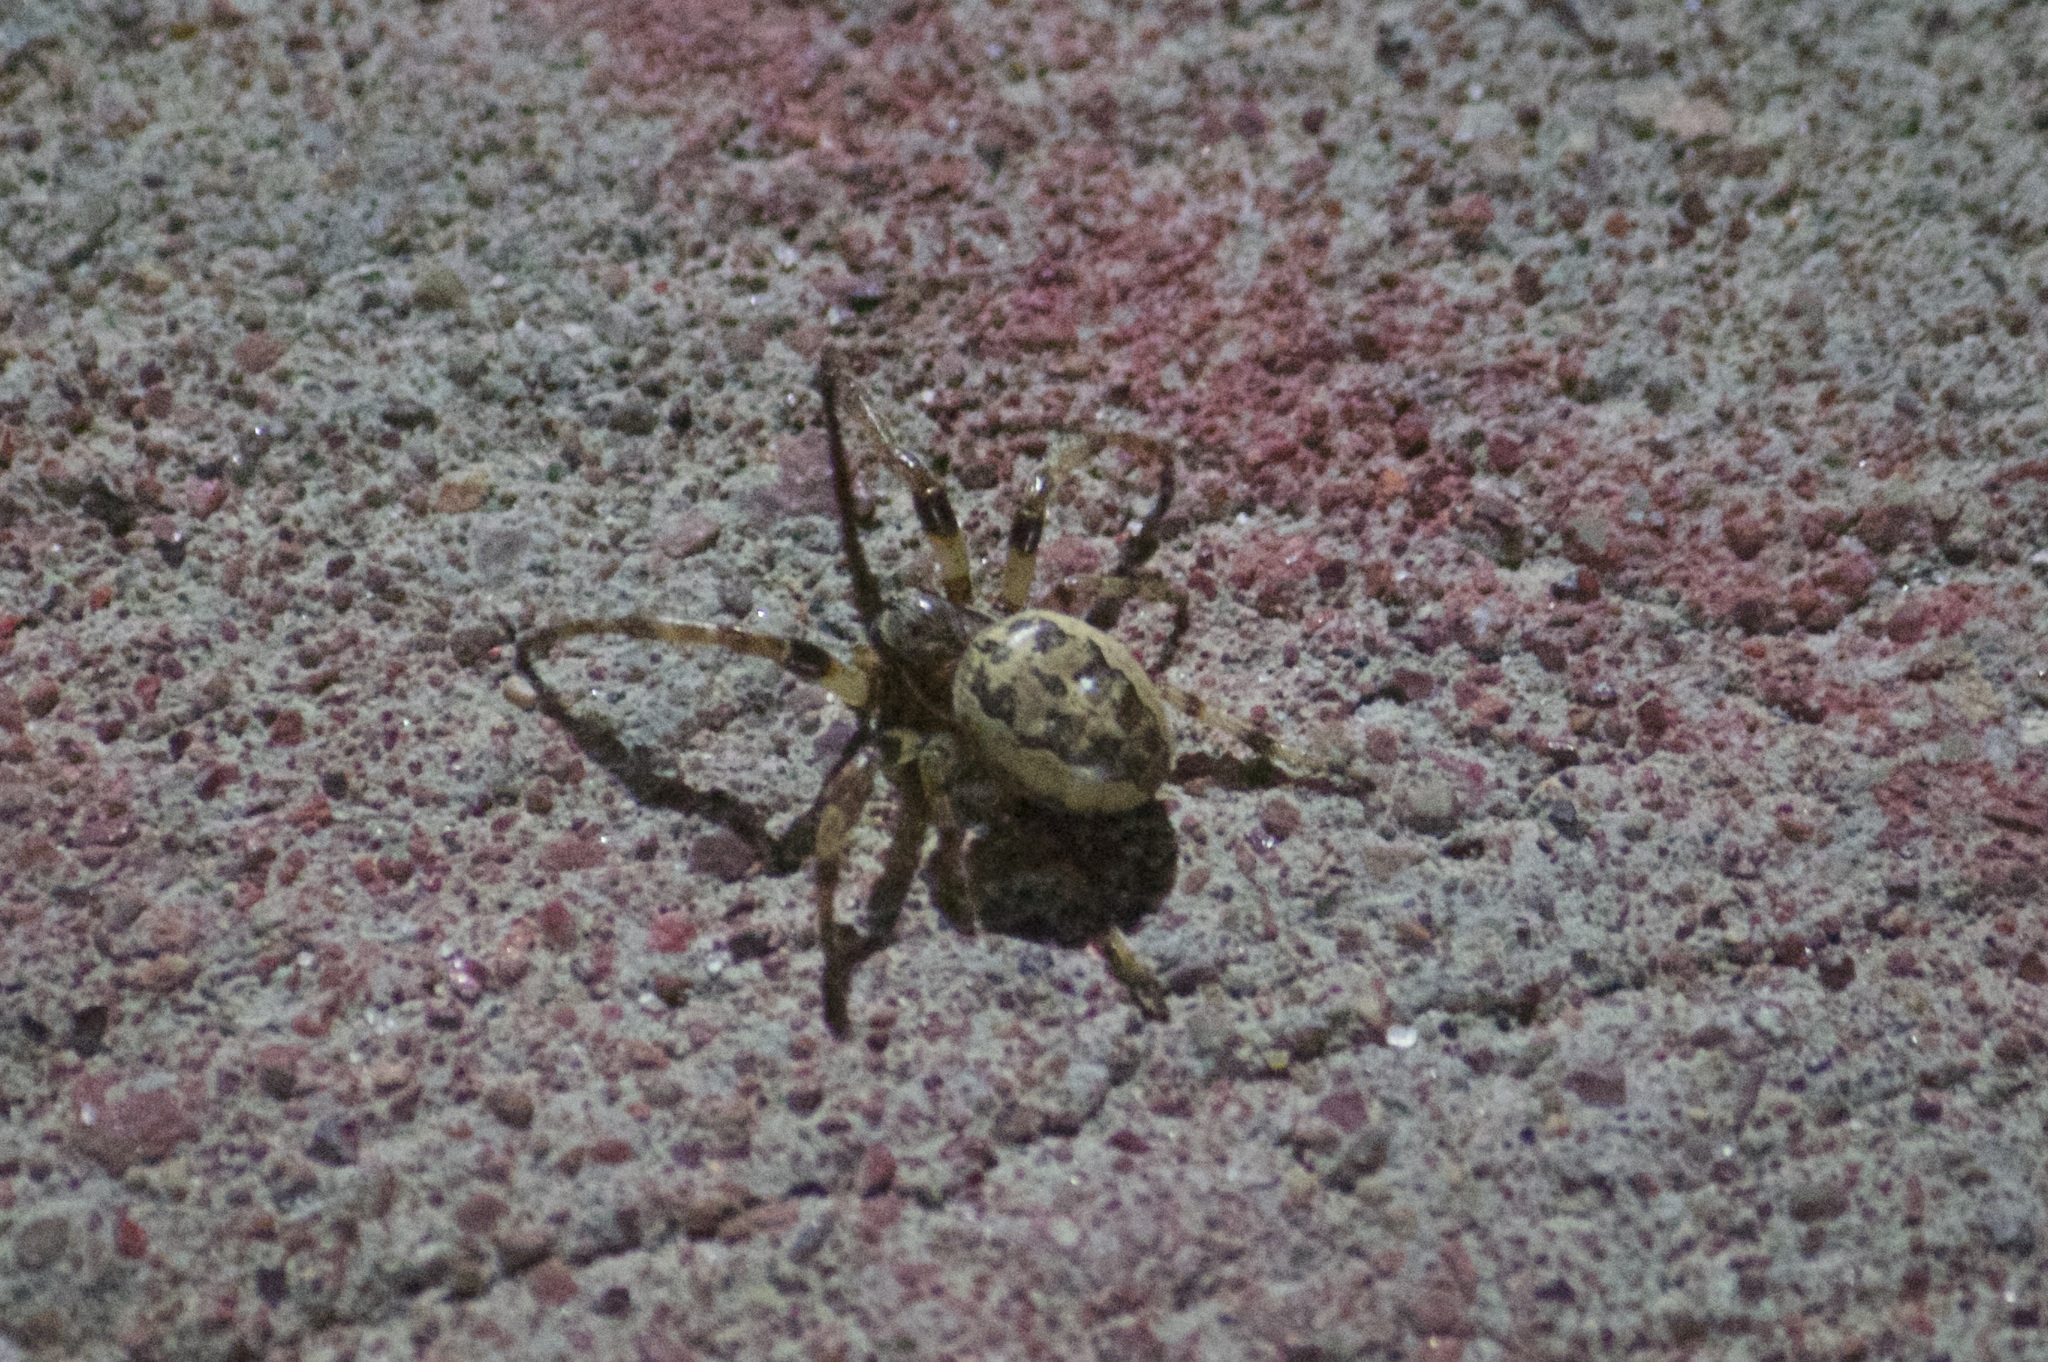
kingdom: Animalia
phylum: Arthropoda
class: Arachnida
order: Araneae
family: Araneidae
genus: Larinioides
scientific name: Larinioides cornutus
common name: Furrow orbweaver
